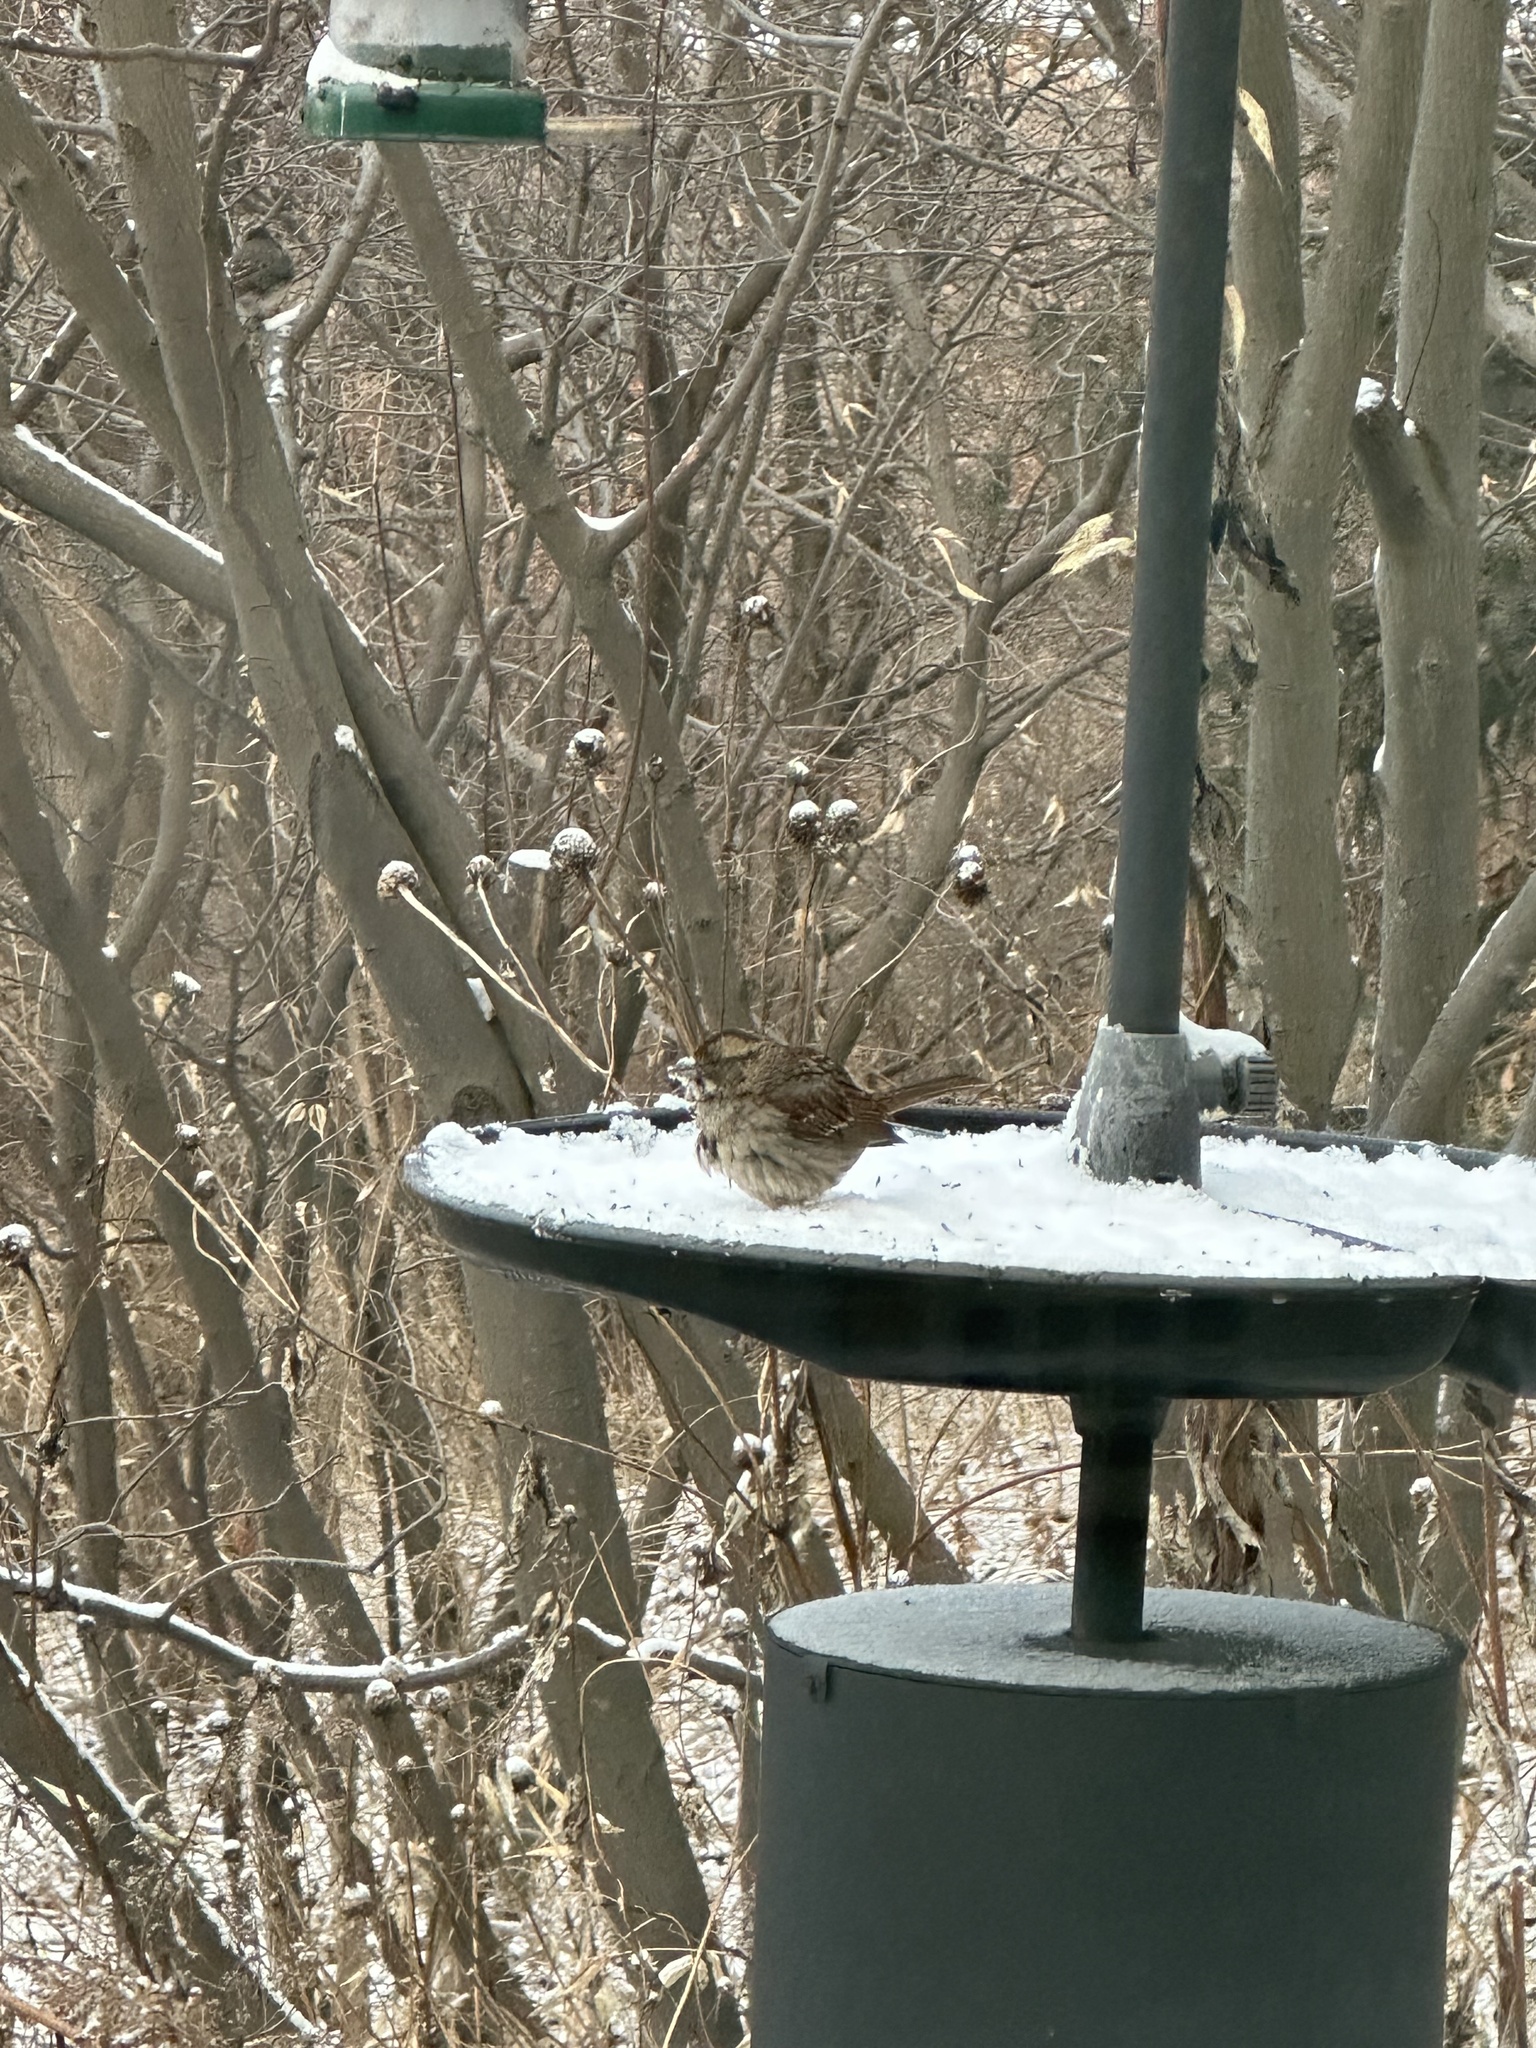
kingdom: Animalia
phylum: Chordata
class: Aves
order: Passeriformes
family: Passerellidae
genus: Zonotrichia
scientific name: Zonotrichia albicollis
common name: White-throated sparrow
